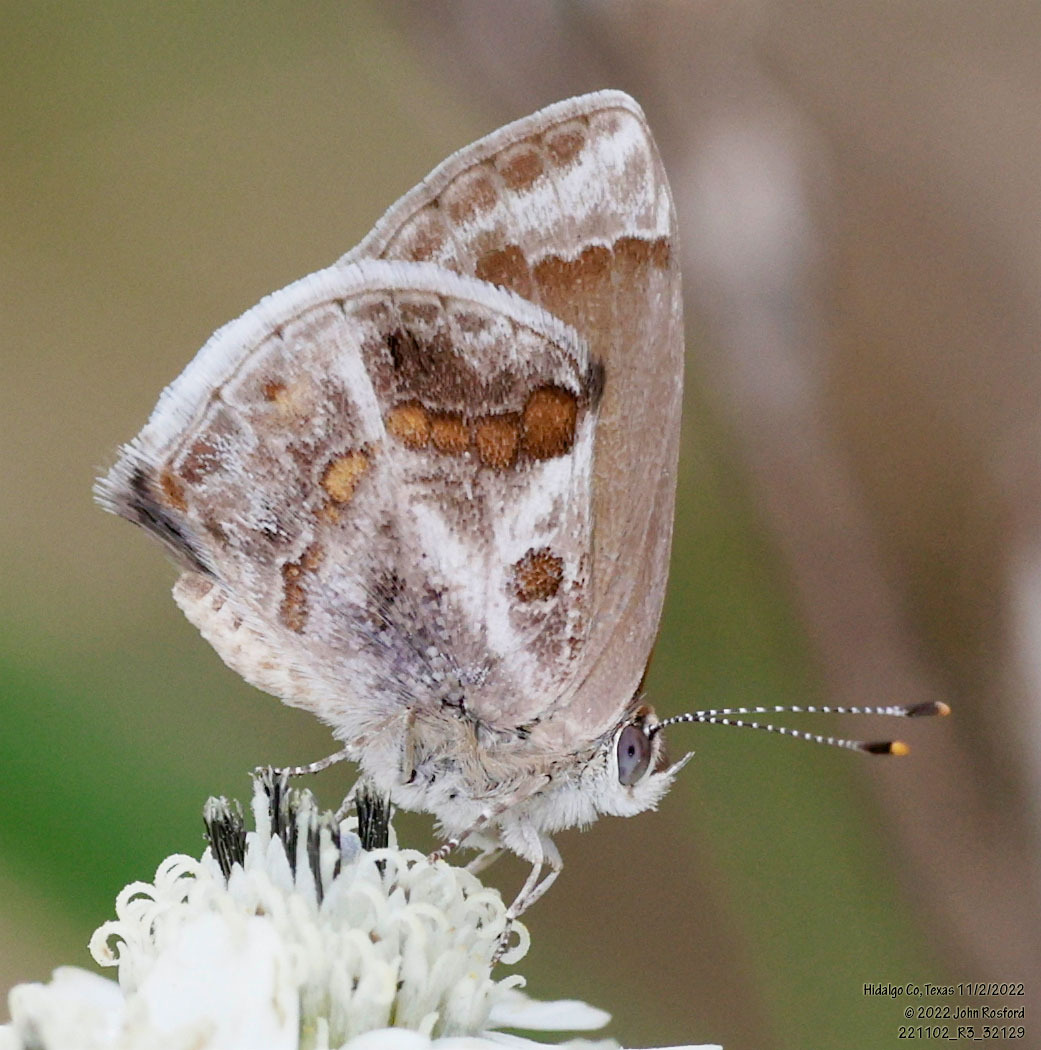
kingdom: Animalia
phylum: Arthropoda
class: Insecta
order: Lepidoptera
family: Lycaenidae
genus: Strymon
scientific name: Strymon bazochii
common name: Lantana scrub-hairstreak
